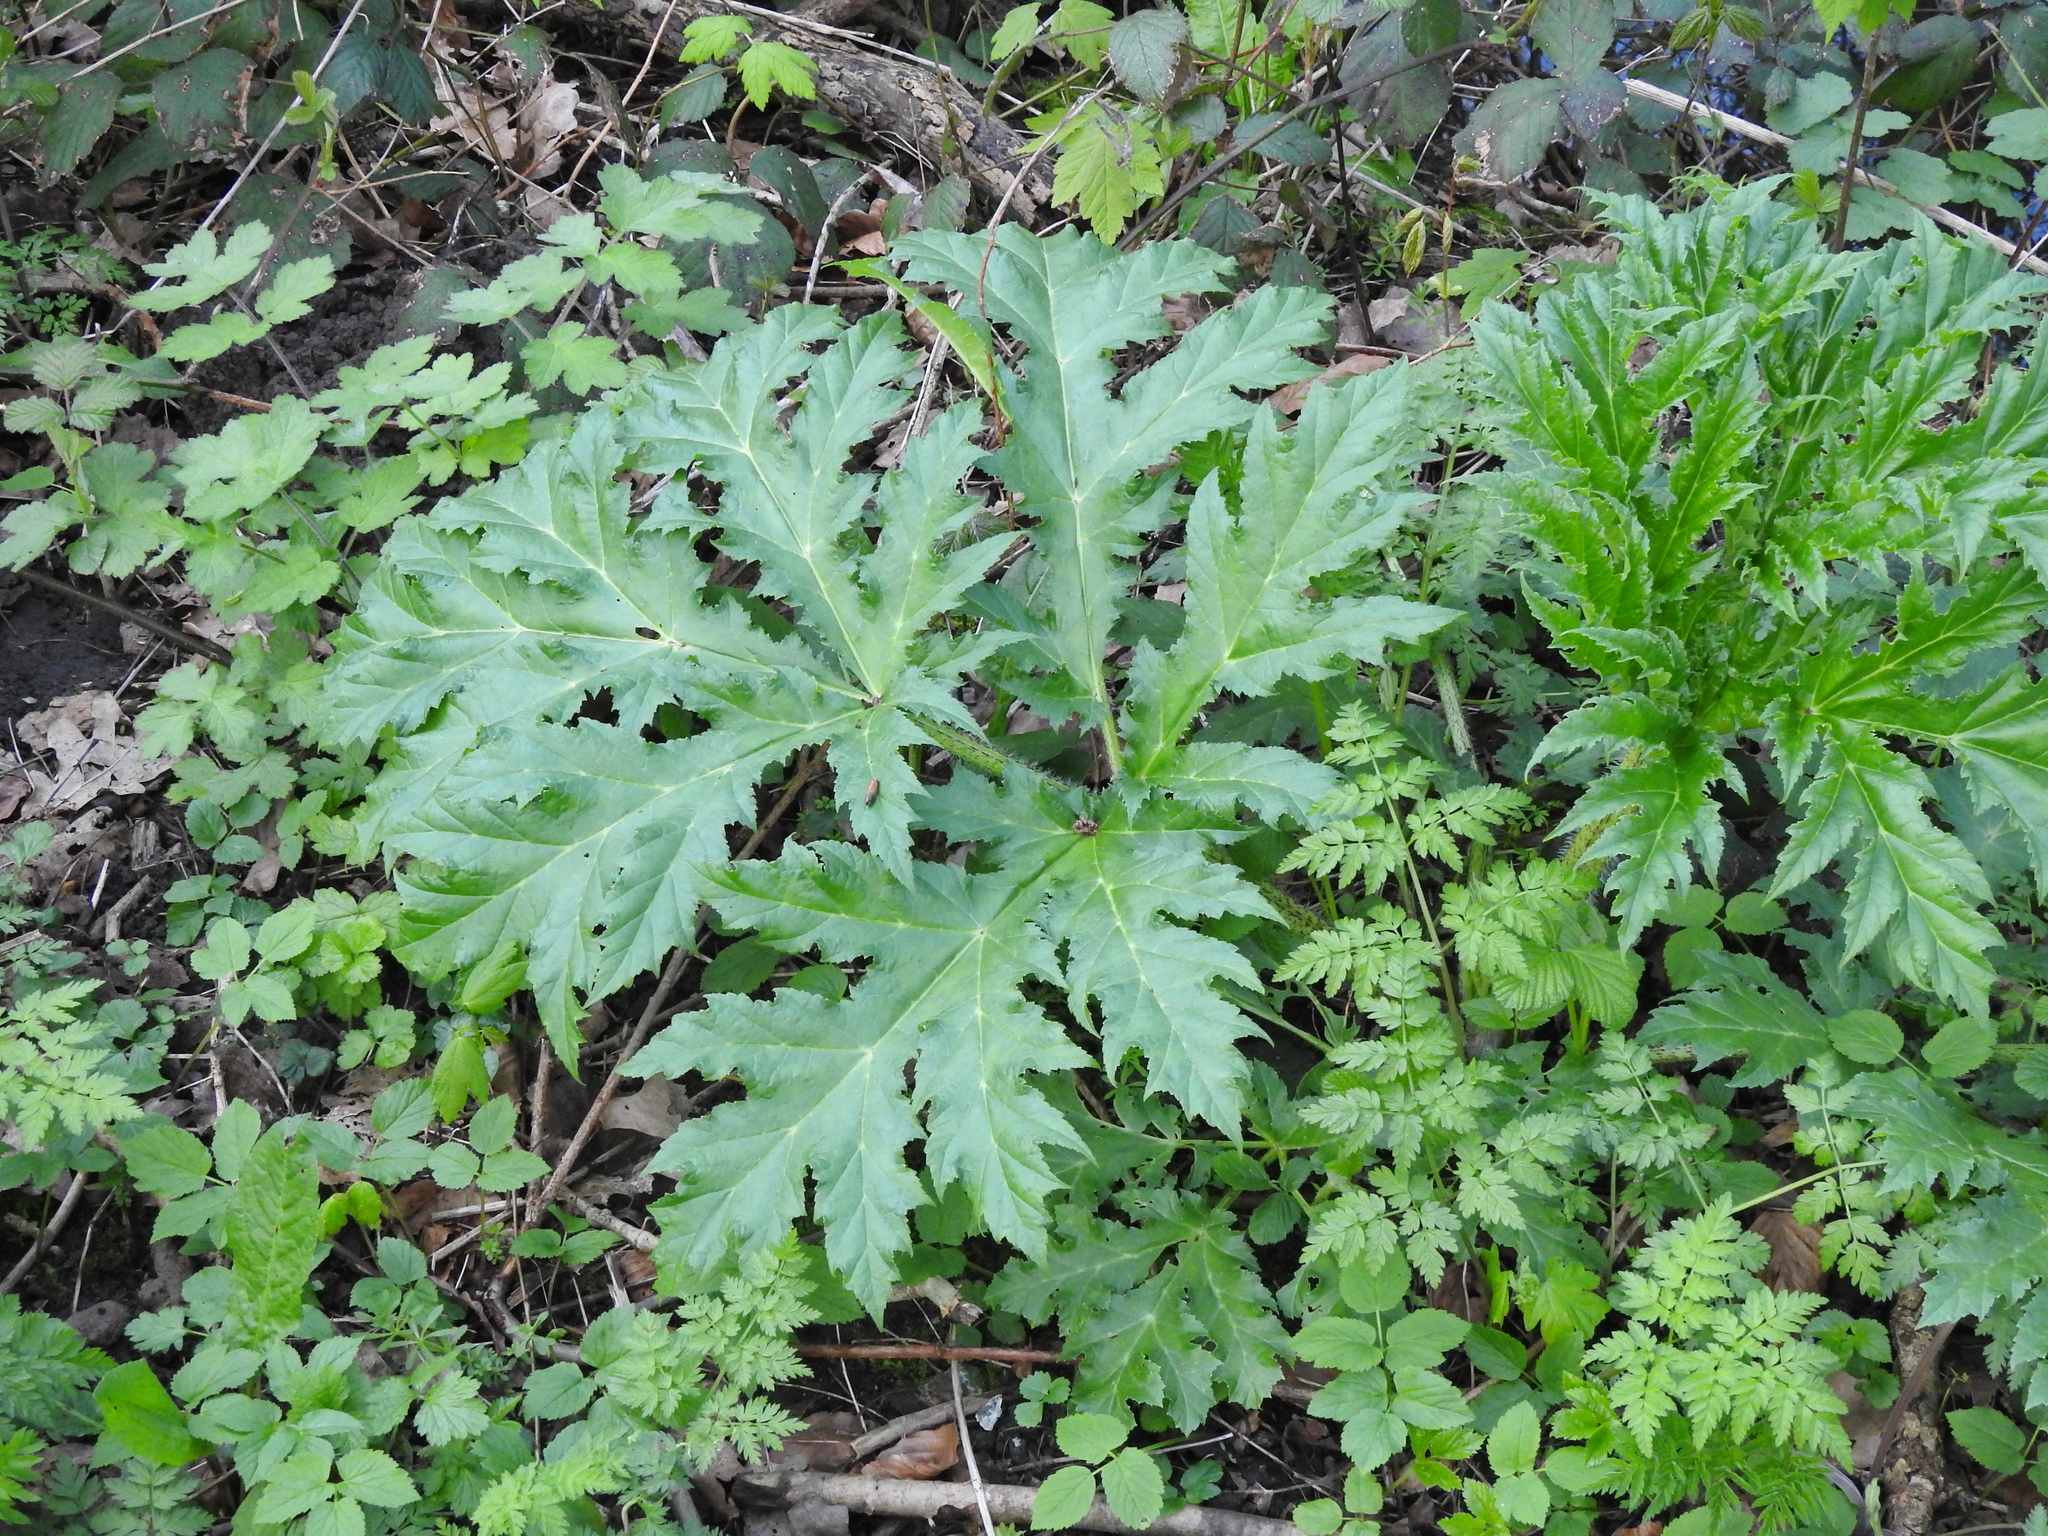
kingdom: Plantae
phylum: Tracheophyta
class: Magnoliopsida
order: Apiales
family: Apiaceae
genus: Heracleum
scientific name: Heracleum mantegazzianum
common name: Giant hogweed
